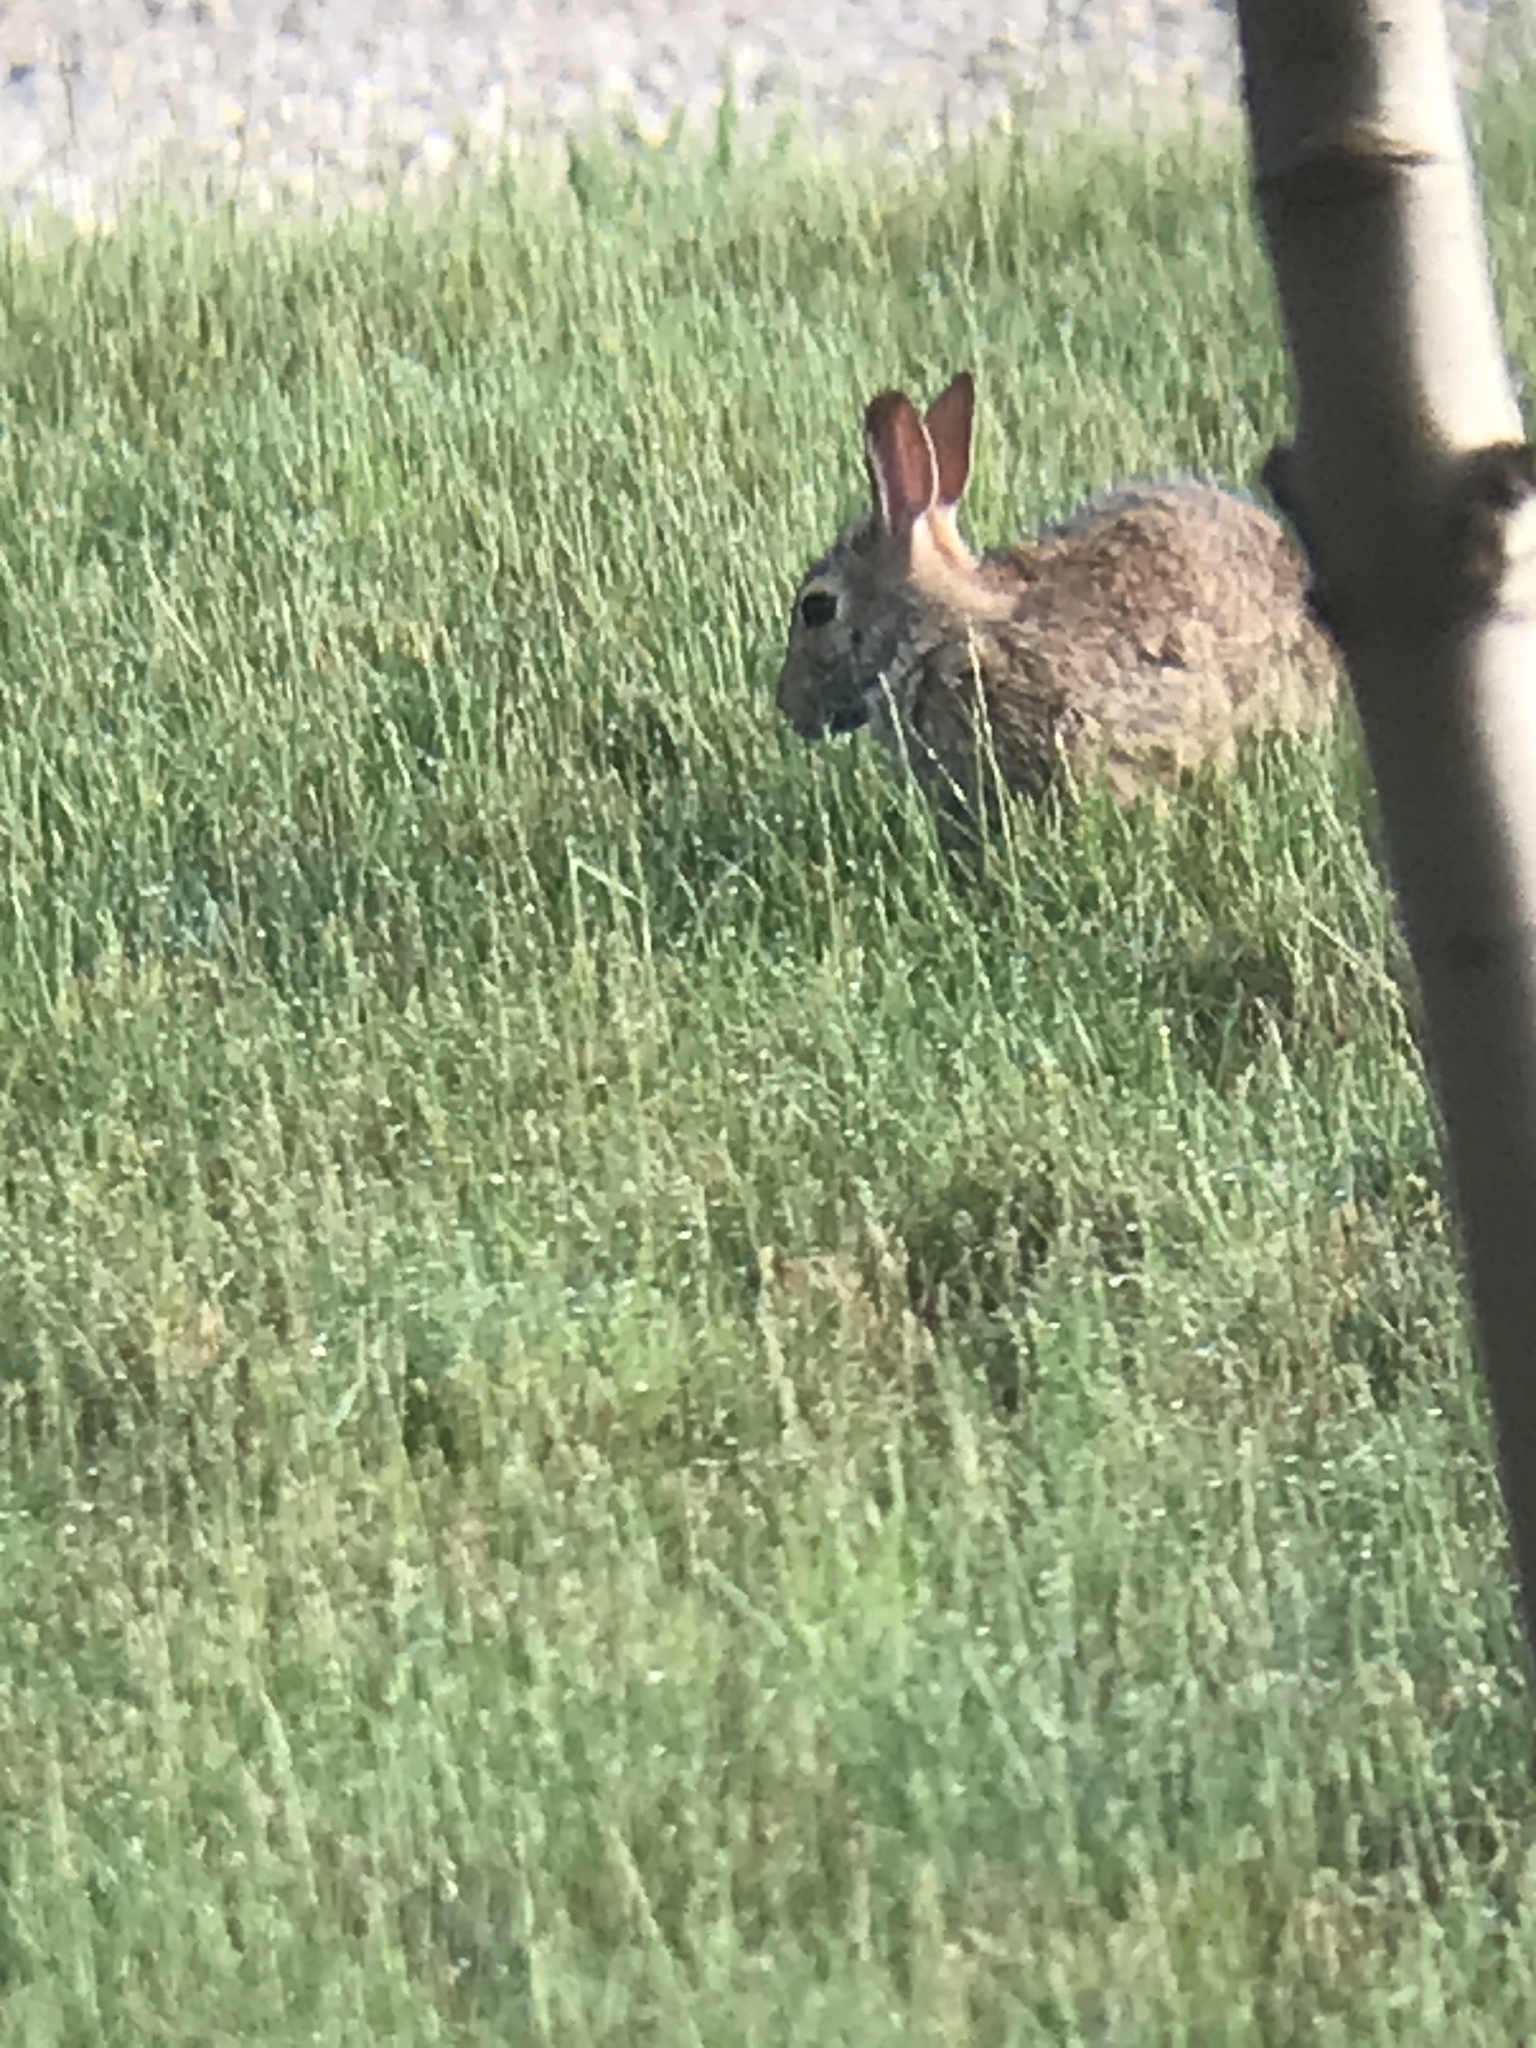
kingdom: Animalia
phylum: Chordata
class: Mammalia
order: Lagomorpha
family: Leporidae
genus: Sylvilagus
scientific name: Sylvilagus floridanus
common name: Eastern cottontail
